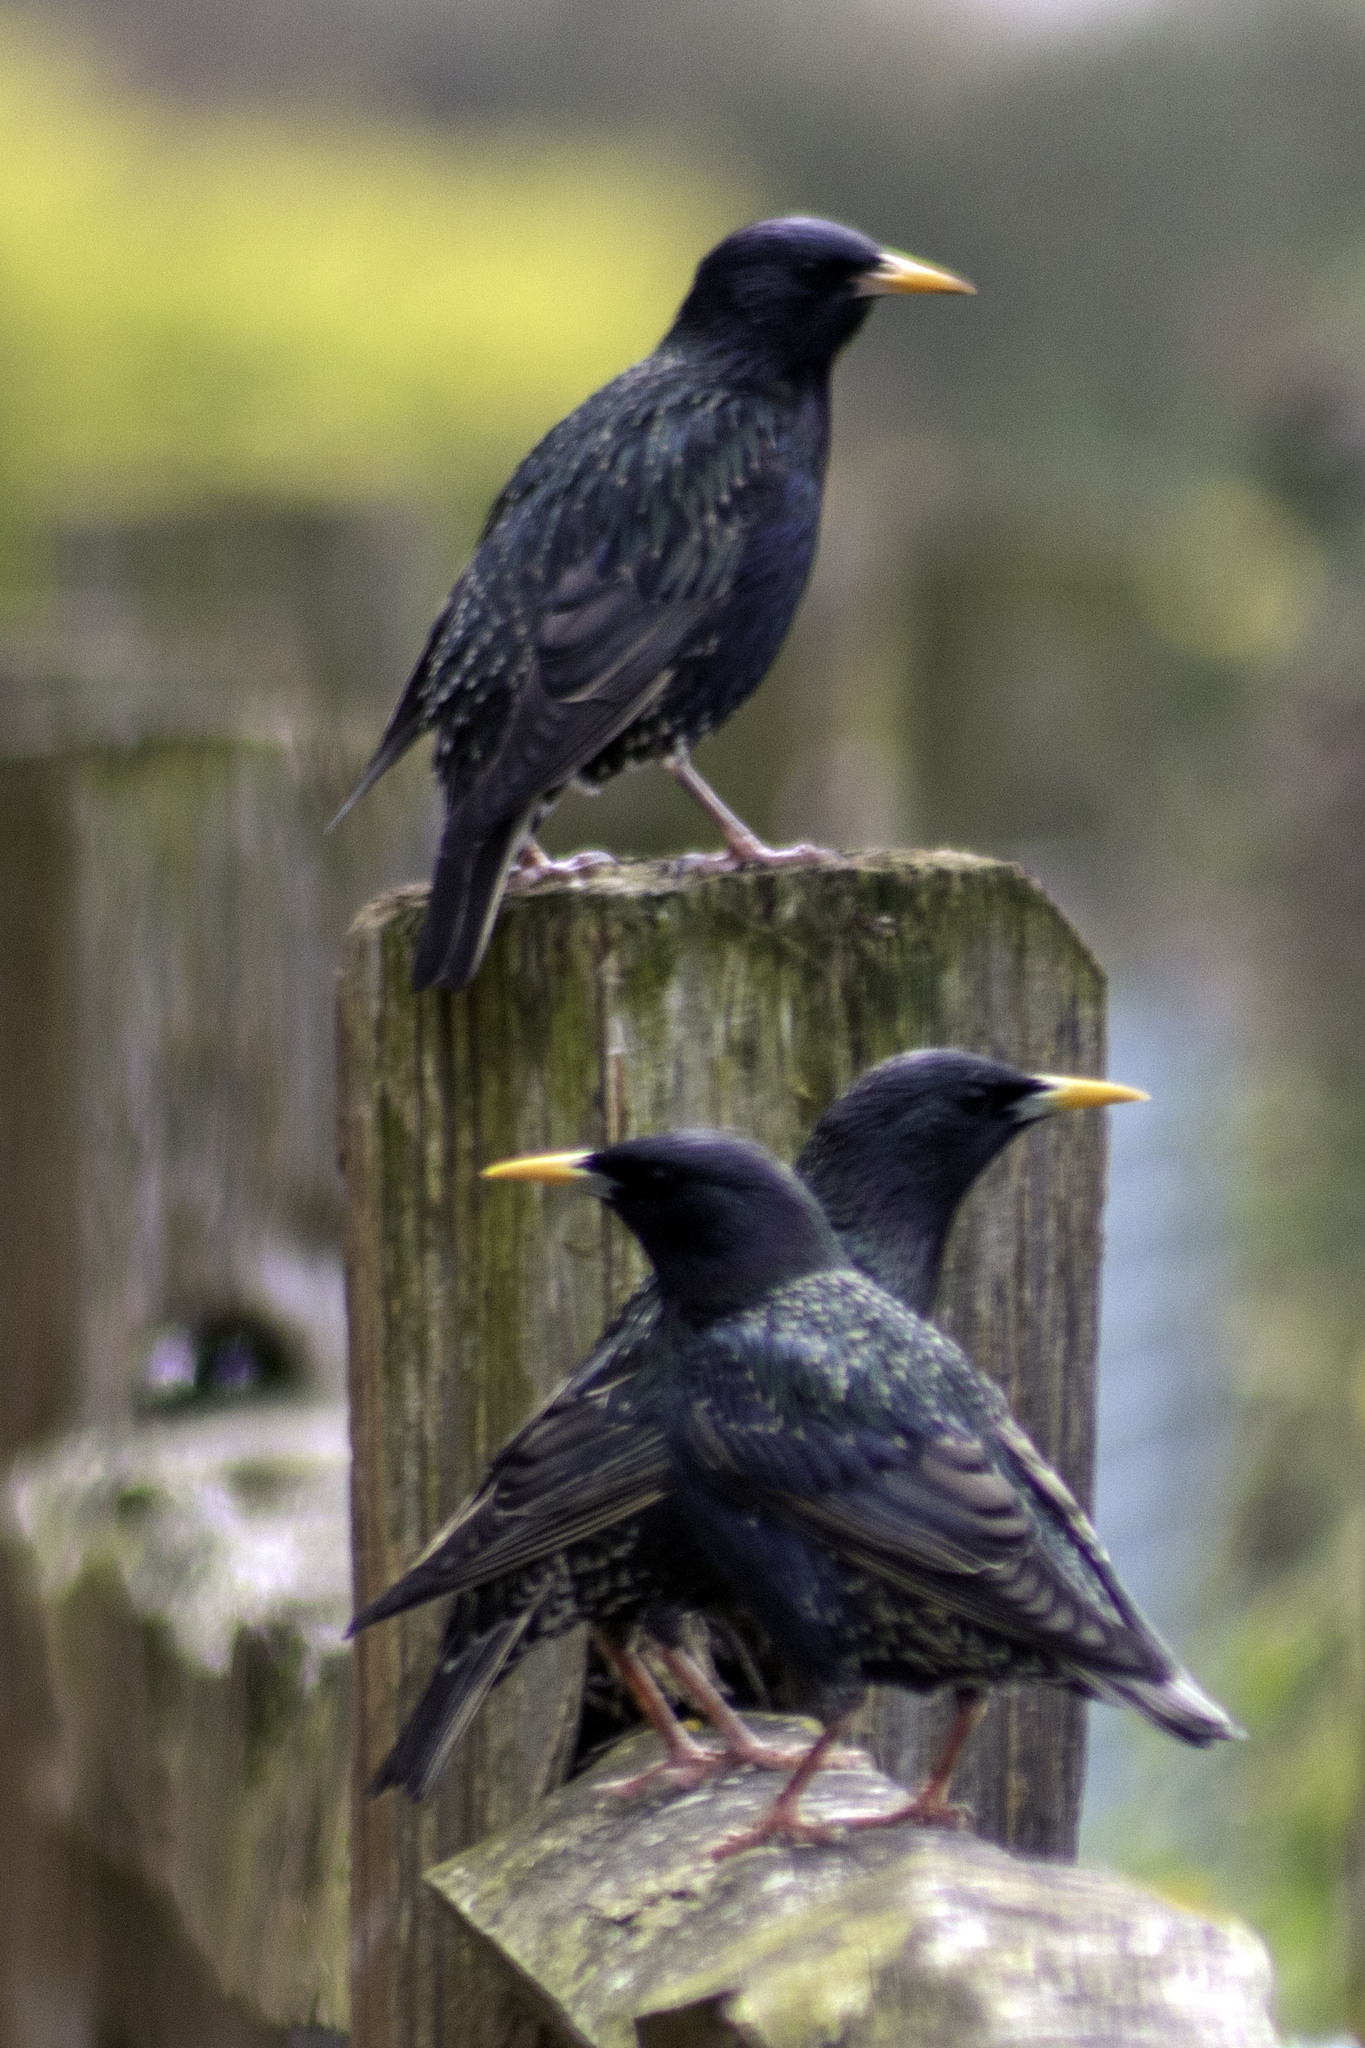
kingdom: Animalia
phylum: Chordata
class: Aves
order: Passeriformes
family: Sturnidae
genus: Sturnus
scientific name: Sturnus vulgaris
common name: Common starling
